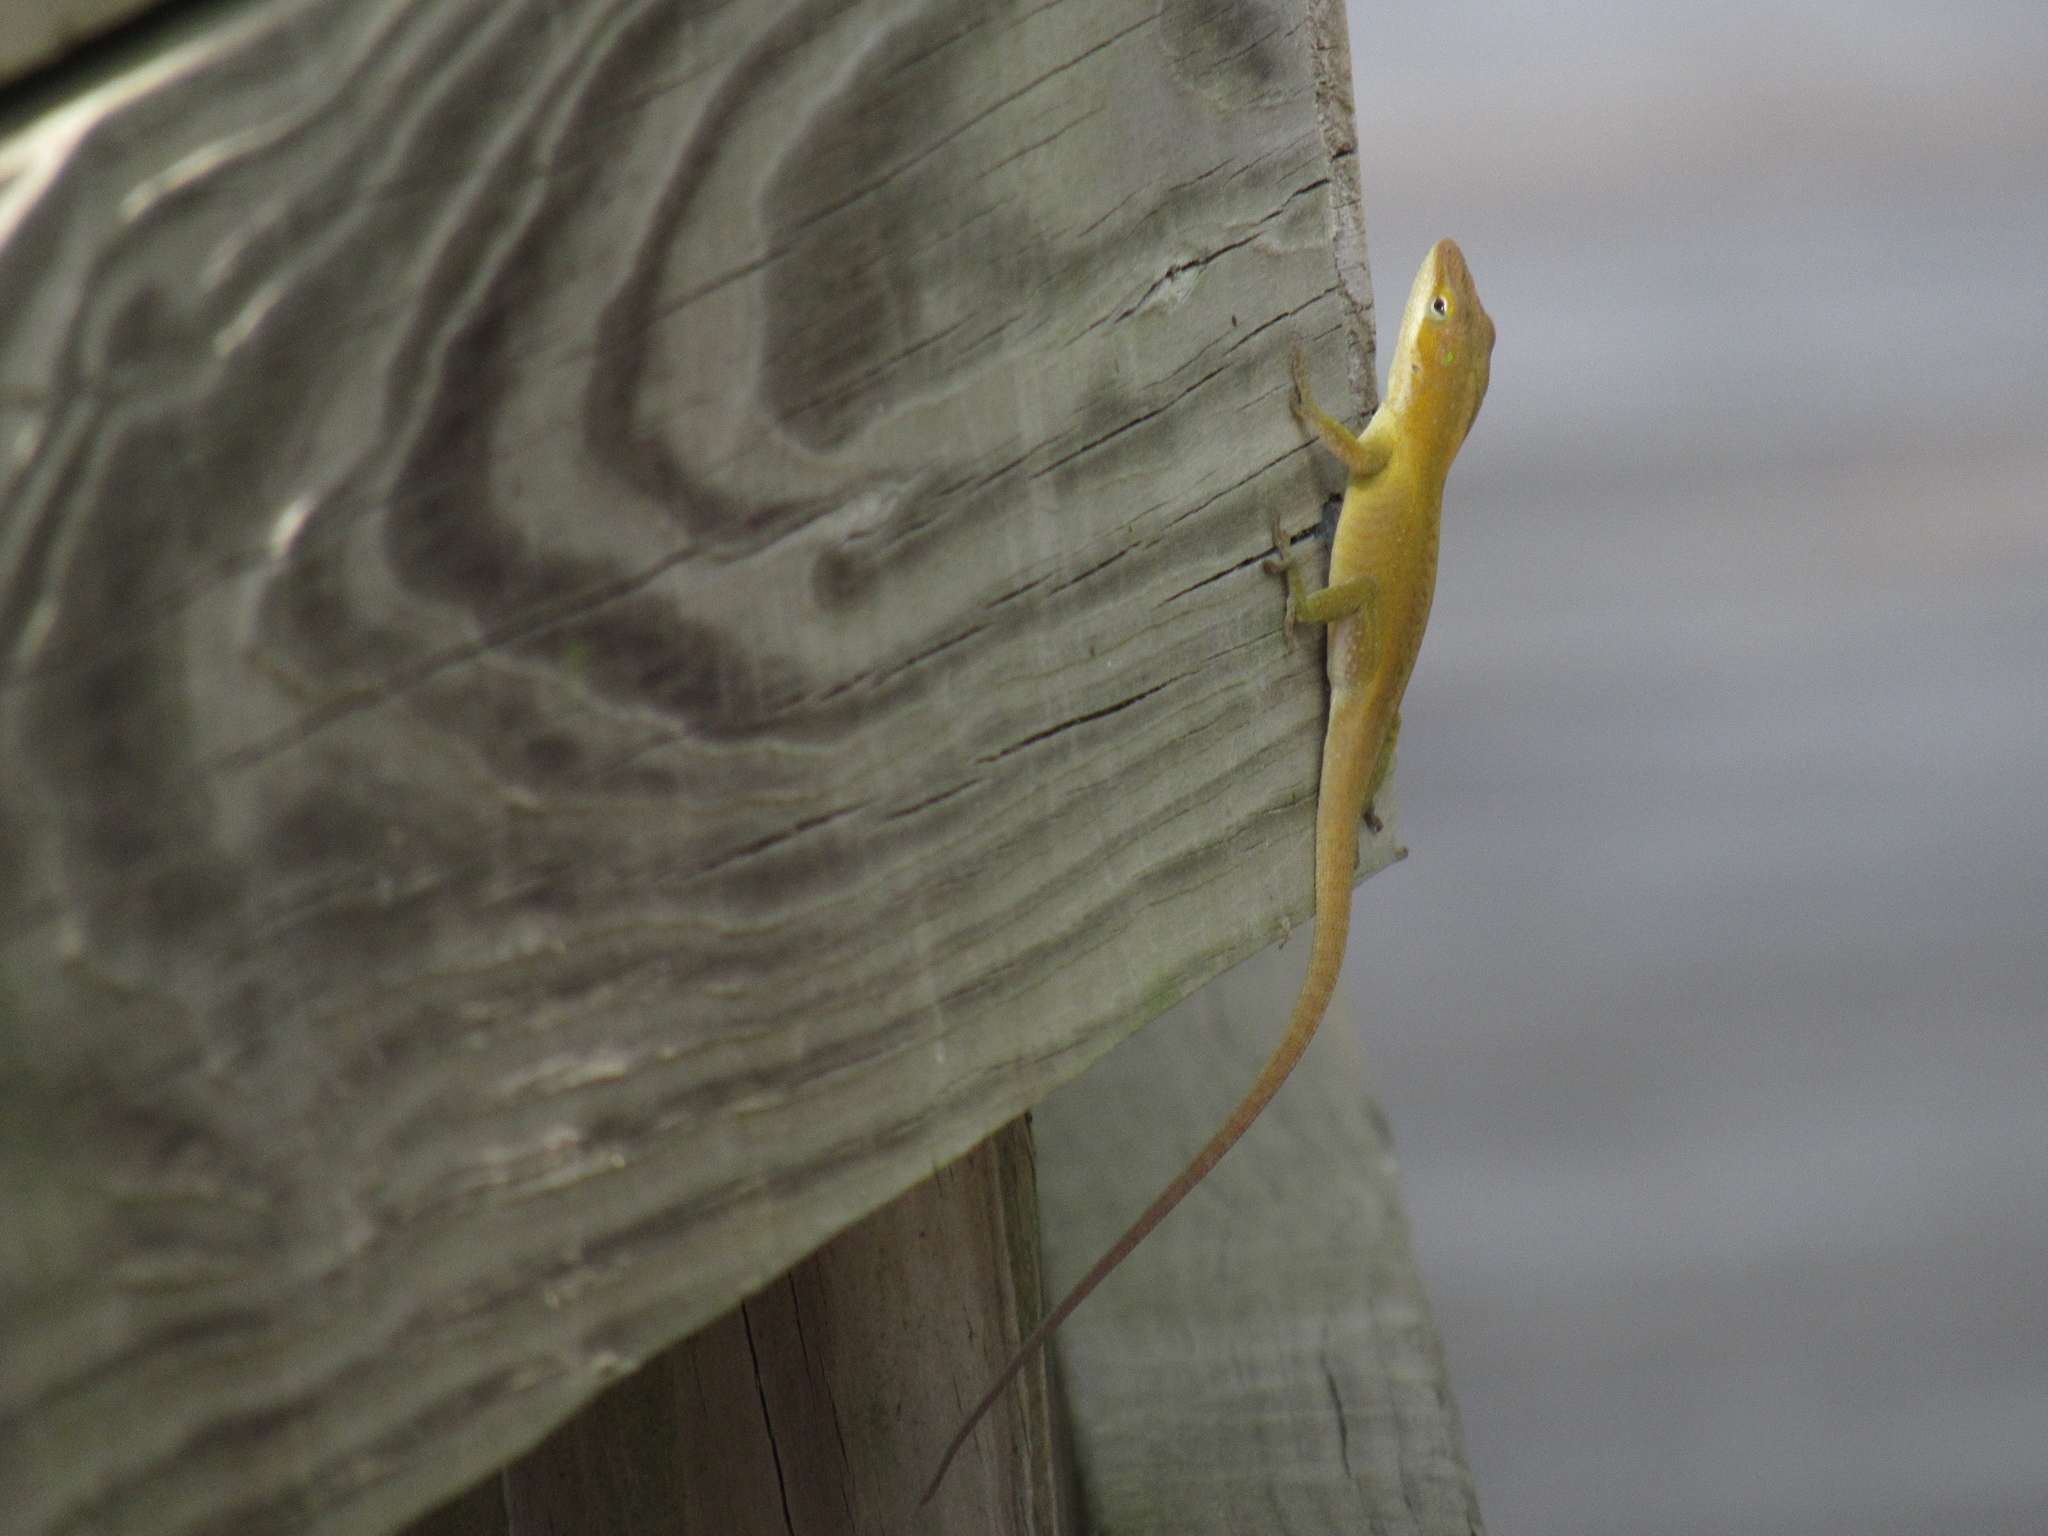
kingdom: Animalia
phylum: Chordata
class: Squamata
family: Dactyloidae
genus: Anolis
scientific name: Anolis carolinensis
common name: Green anole
